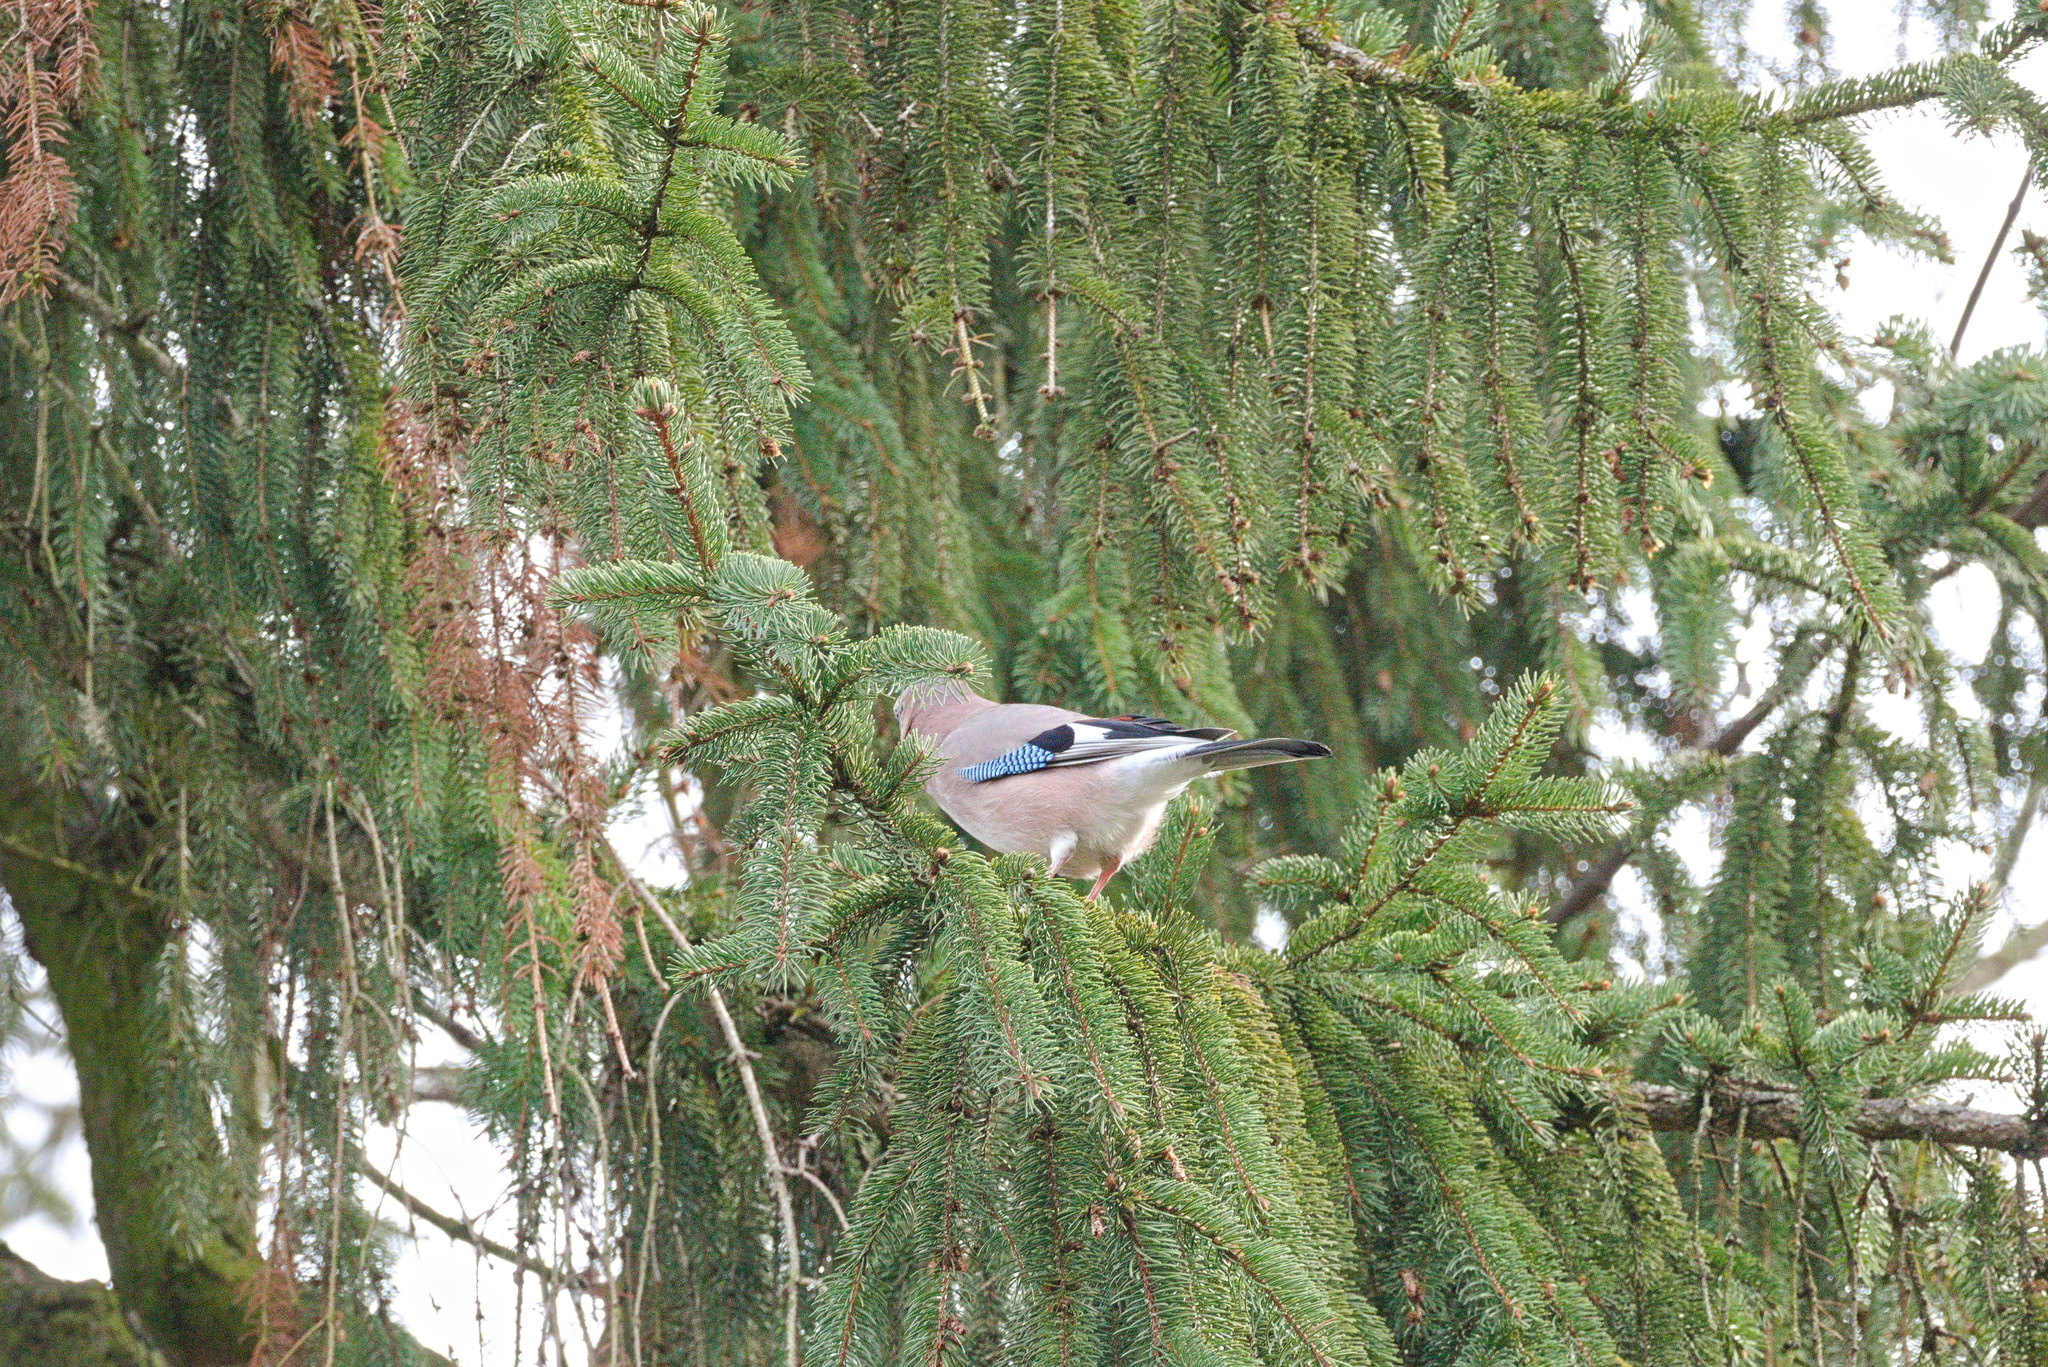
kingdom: Animalia
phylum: Chordata
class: Aves
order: Passeriformes
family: Corvidae
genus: Garrulus
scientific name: Garrulus glandarius
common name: Eurasian jay
